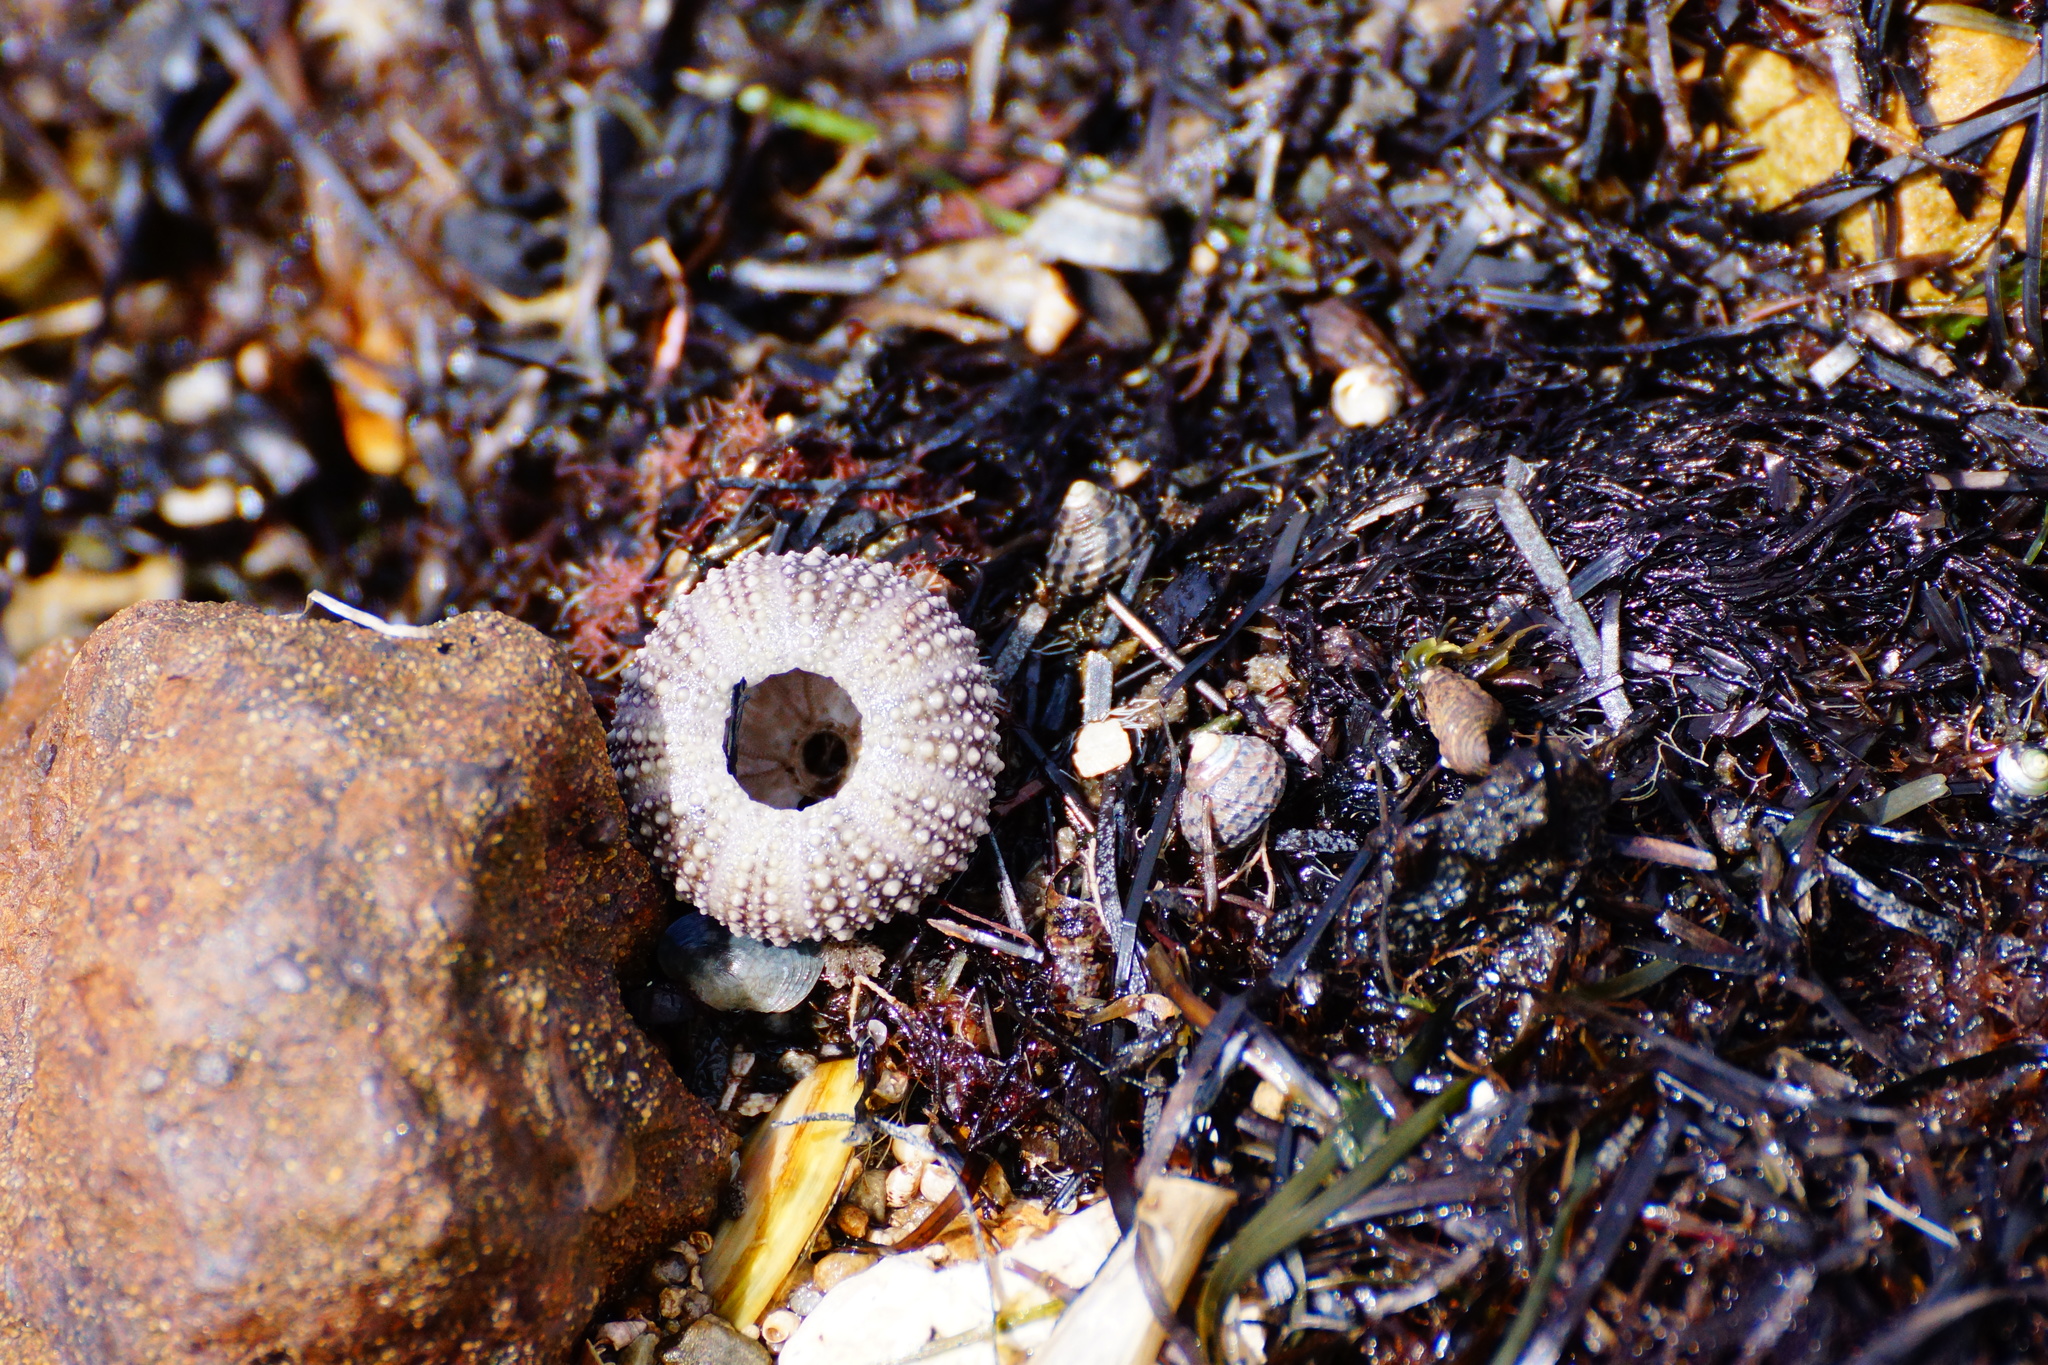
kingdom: Animalia
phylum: Echinodermata
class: Echinoidea
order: Camarodonta
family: Echinometridae
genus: Heliocidaris
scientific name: Heliocidaris erythrogramma
